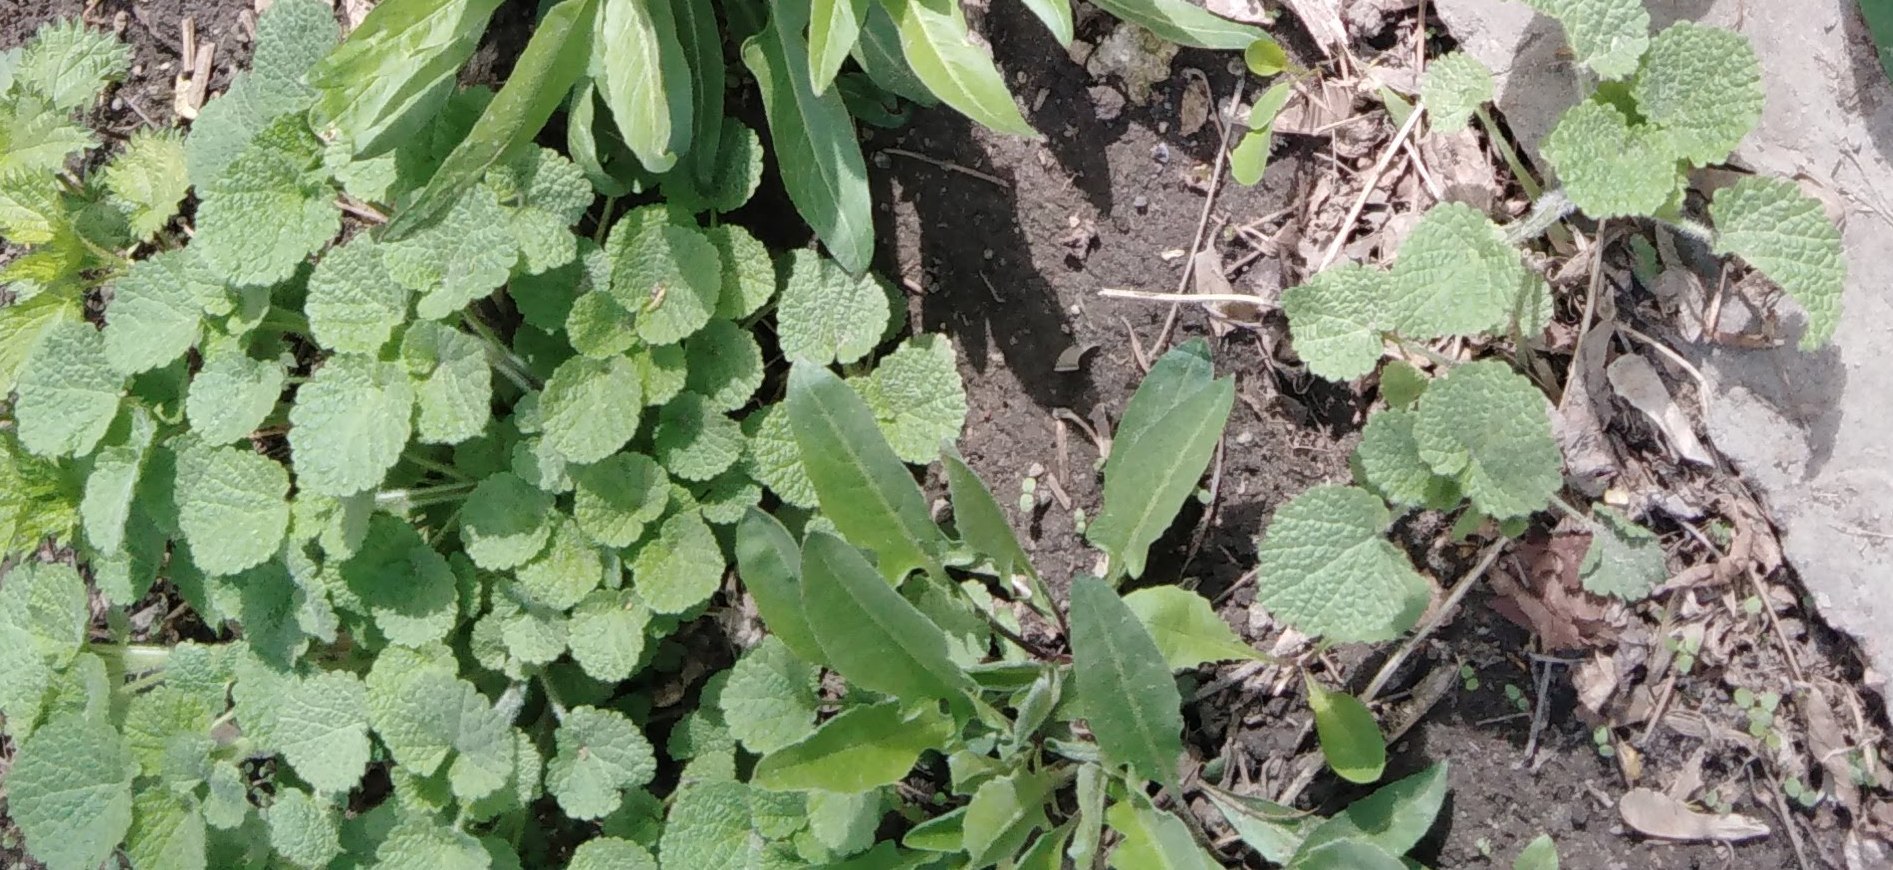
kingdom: Plantae
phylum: Tracheophyta
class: Magnoliopsida
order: Lamiales
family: Lamiaceae
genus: Ballota
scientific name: Ballota nigra
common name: Black horehound
